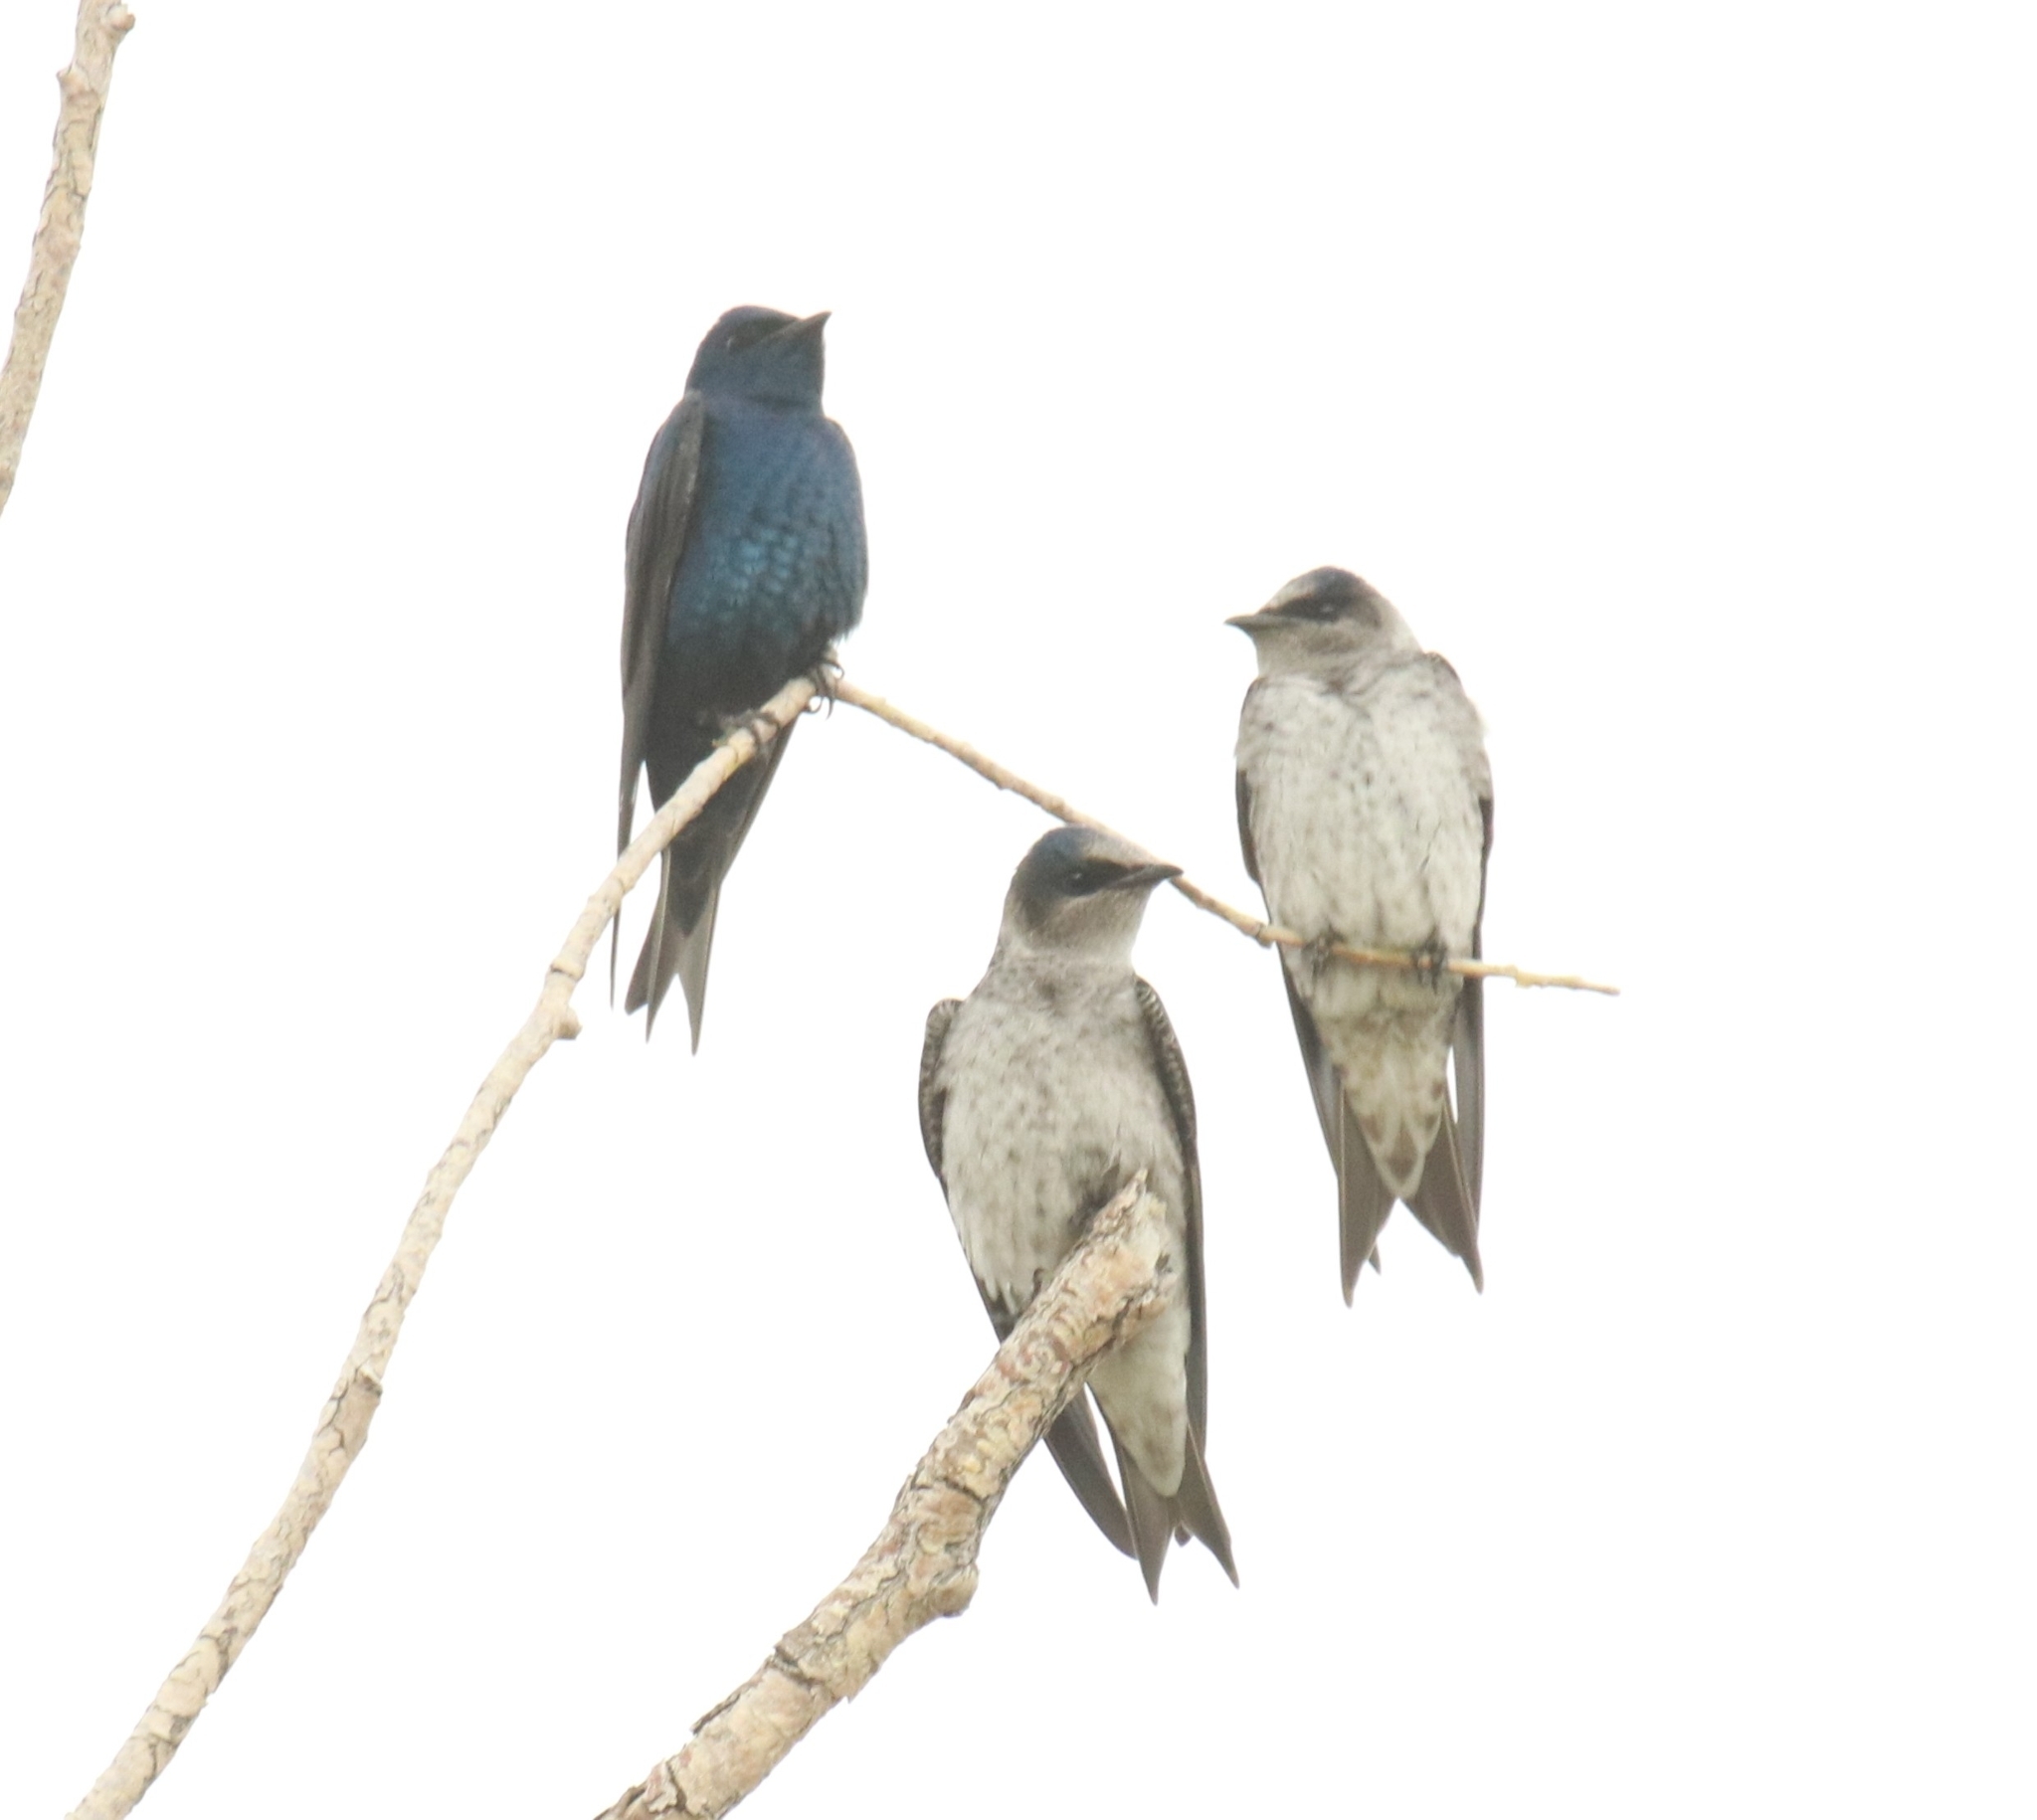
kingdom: Animalia
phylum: Chordata
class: Aves
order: Passeriformes
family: Hirundinidae
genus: Progne
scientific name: Progne subis
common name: Purple martin
